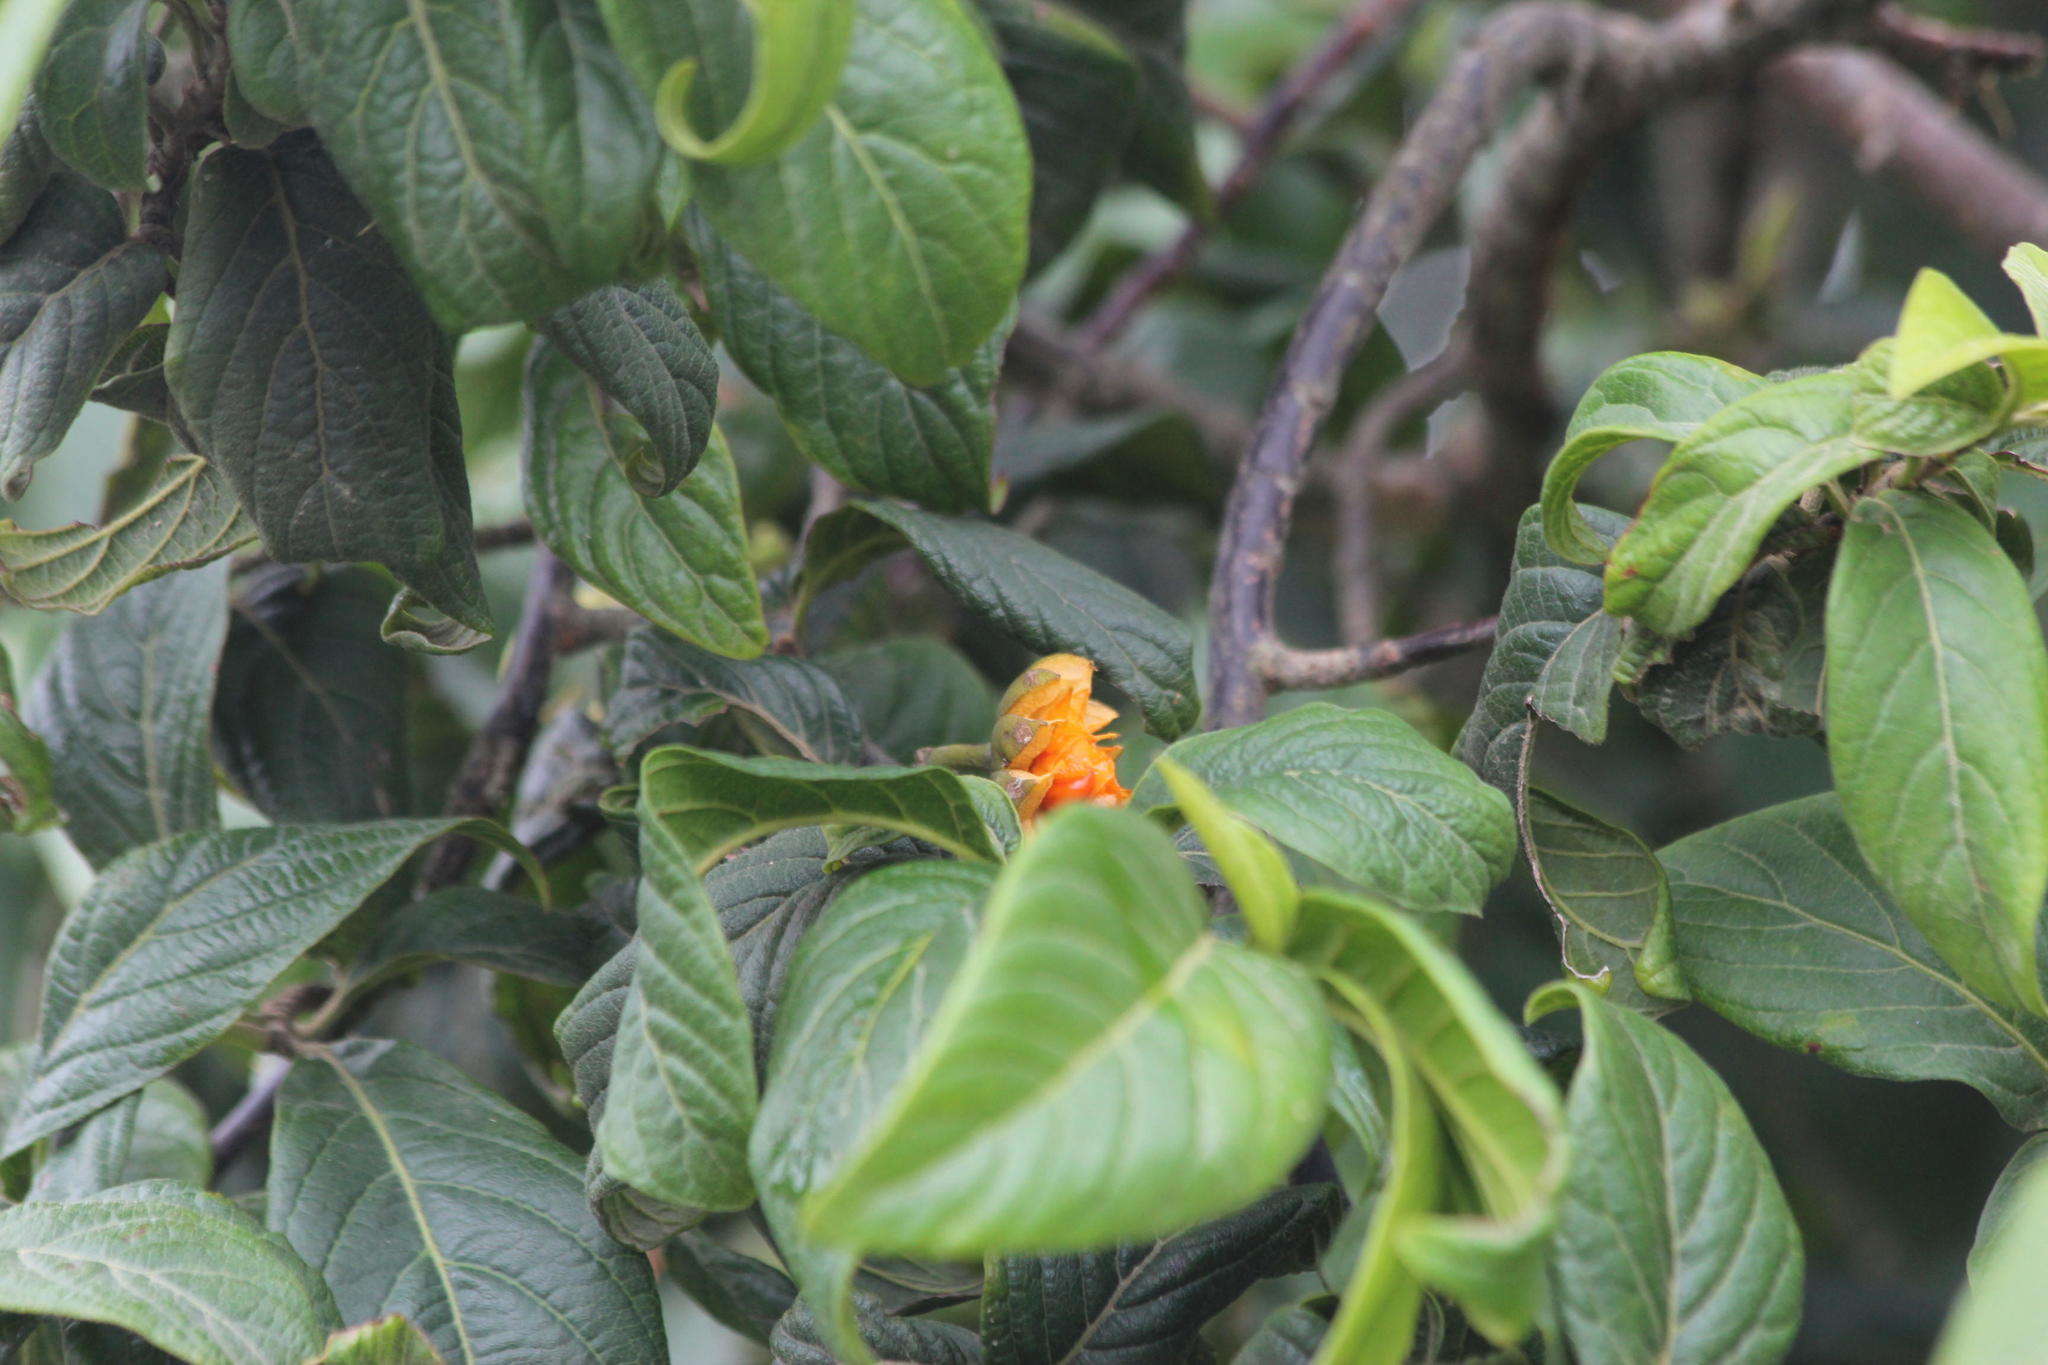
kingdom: Plantae
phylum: Tracheophyta
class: Magnoliopsida
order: Sapindales
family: Meliaceae
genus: Turraea
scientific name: Turraea floribunda
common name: Honeysuckle tree
